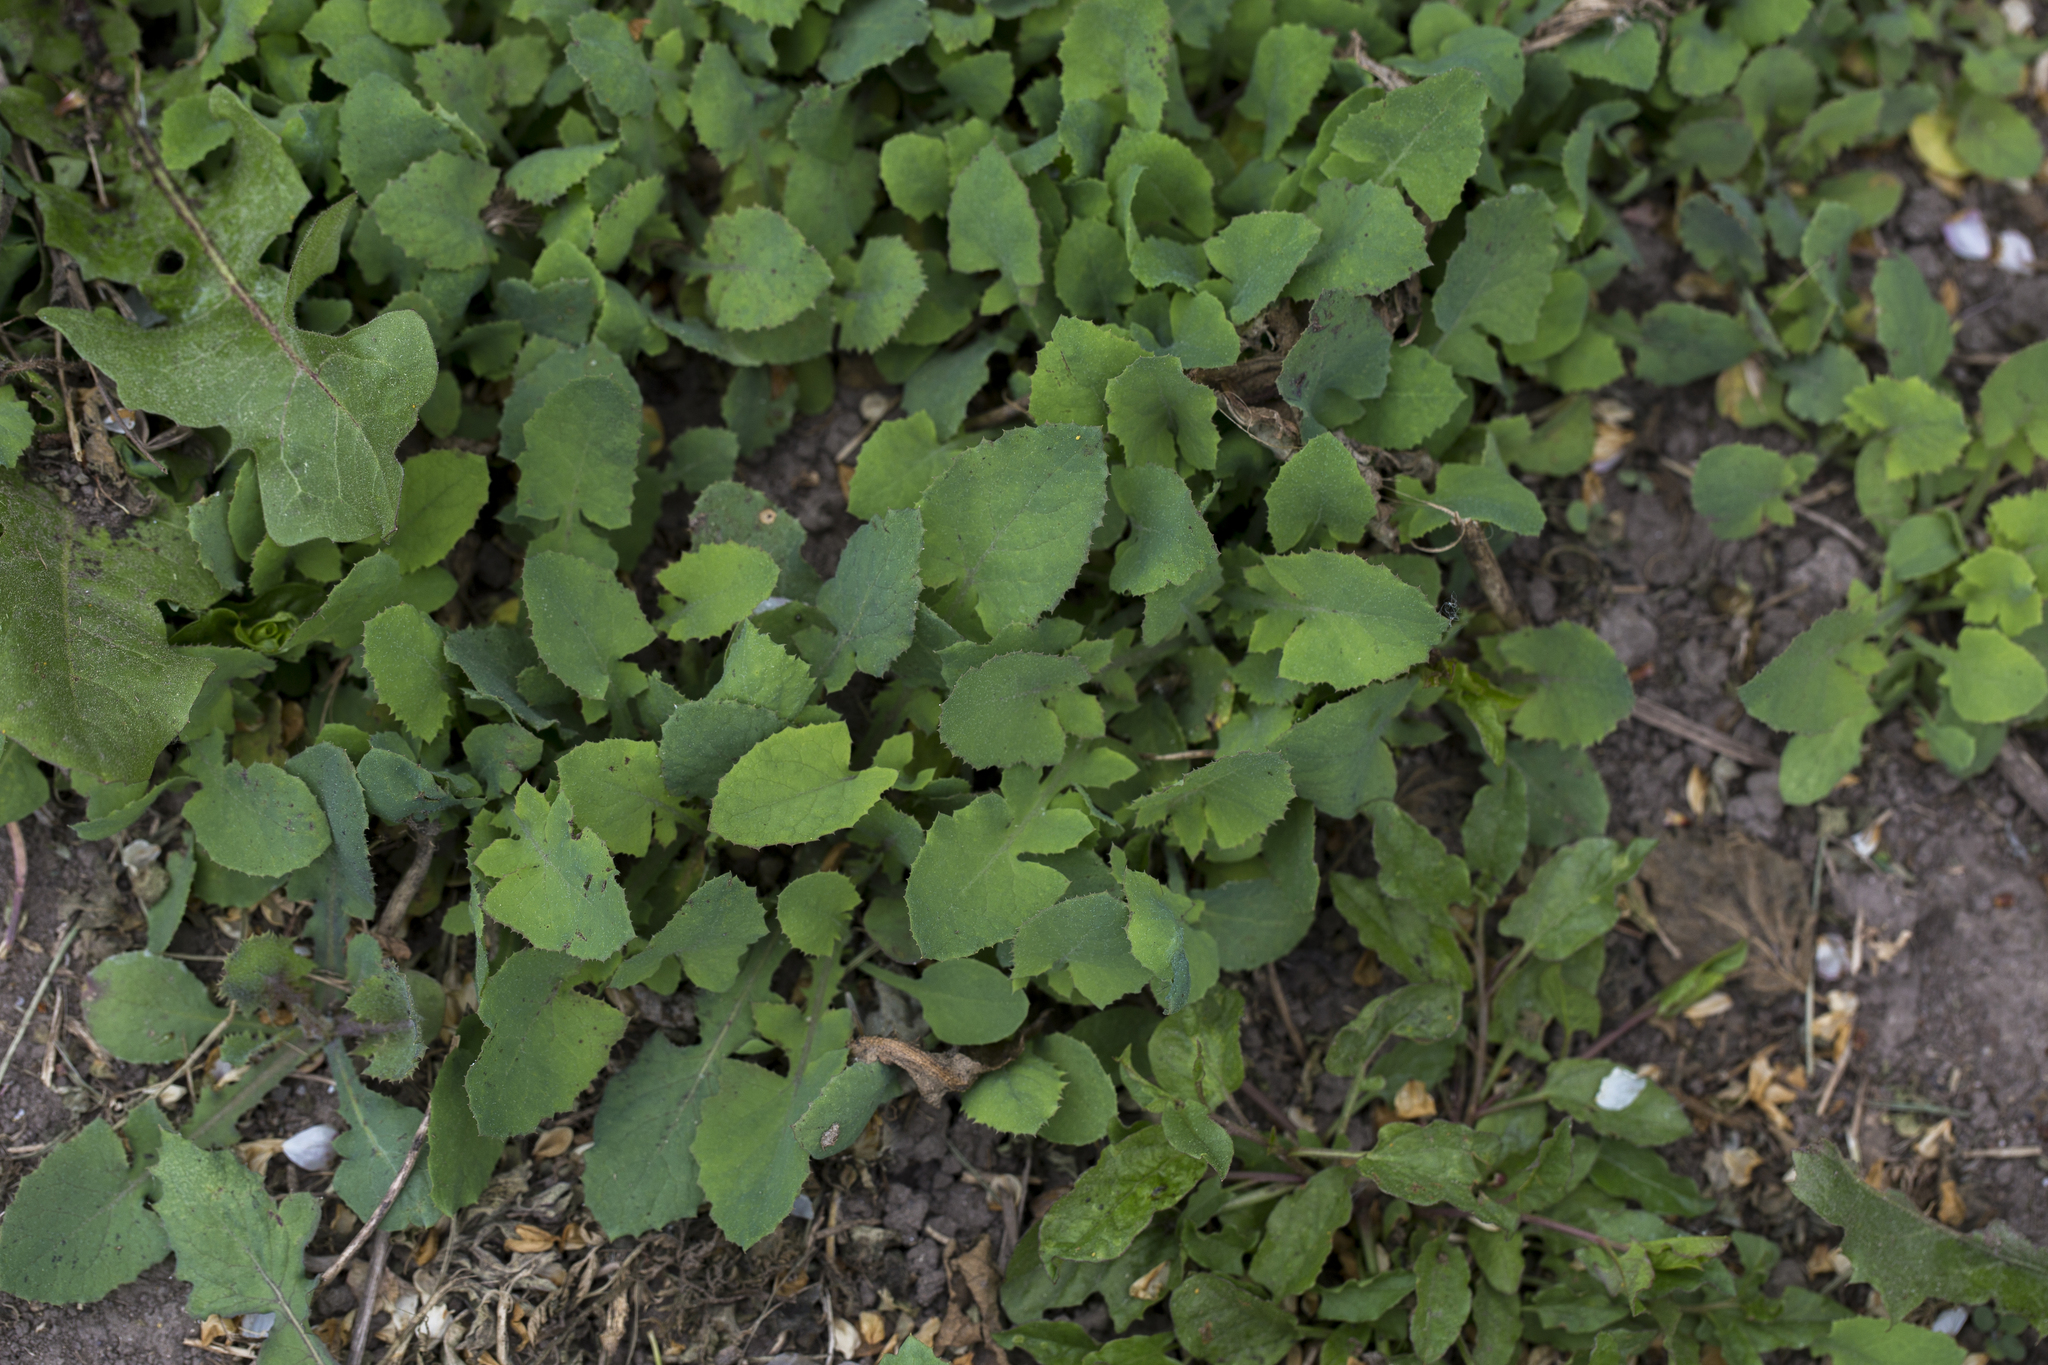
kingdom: Plantae
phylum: Tracheophyta
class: Magnoliopsida
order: Asterales
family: Asteraceae
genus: Sonchus
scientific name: Sonchus oleraceus
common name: Common sowthistle
